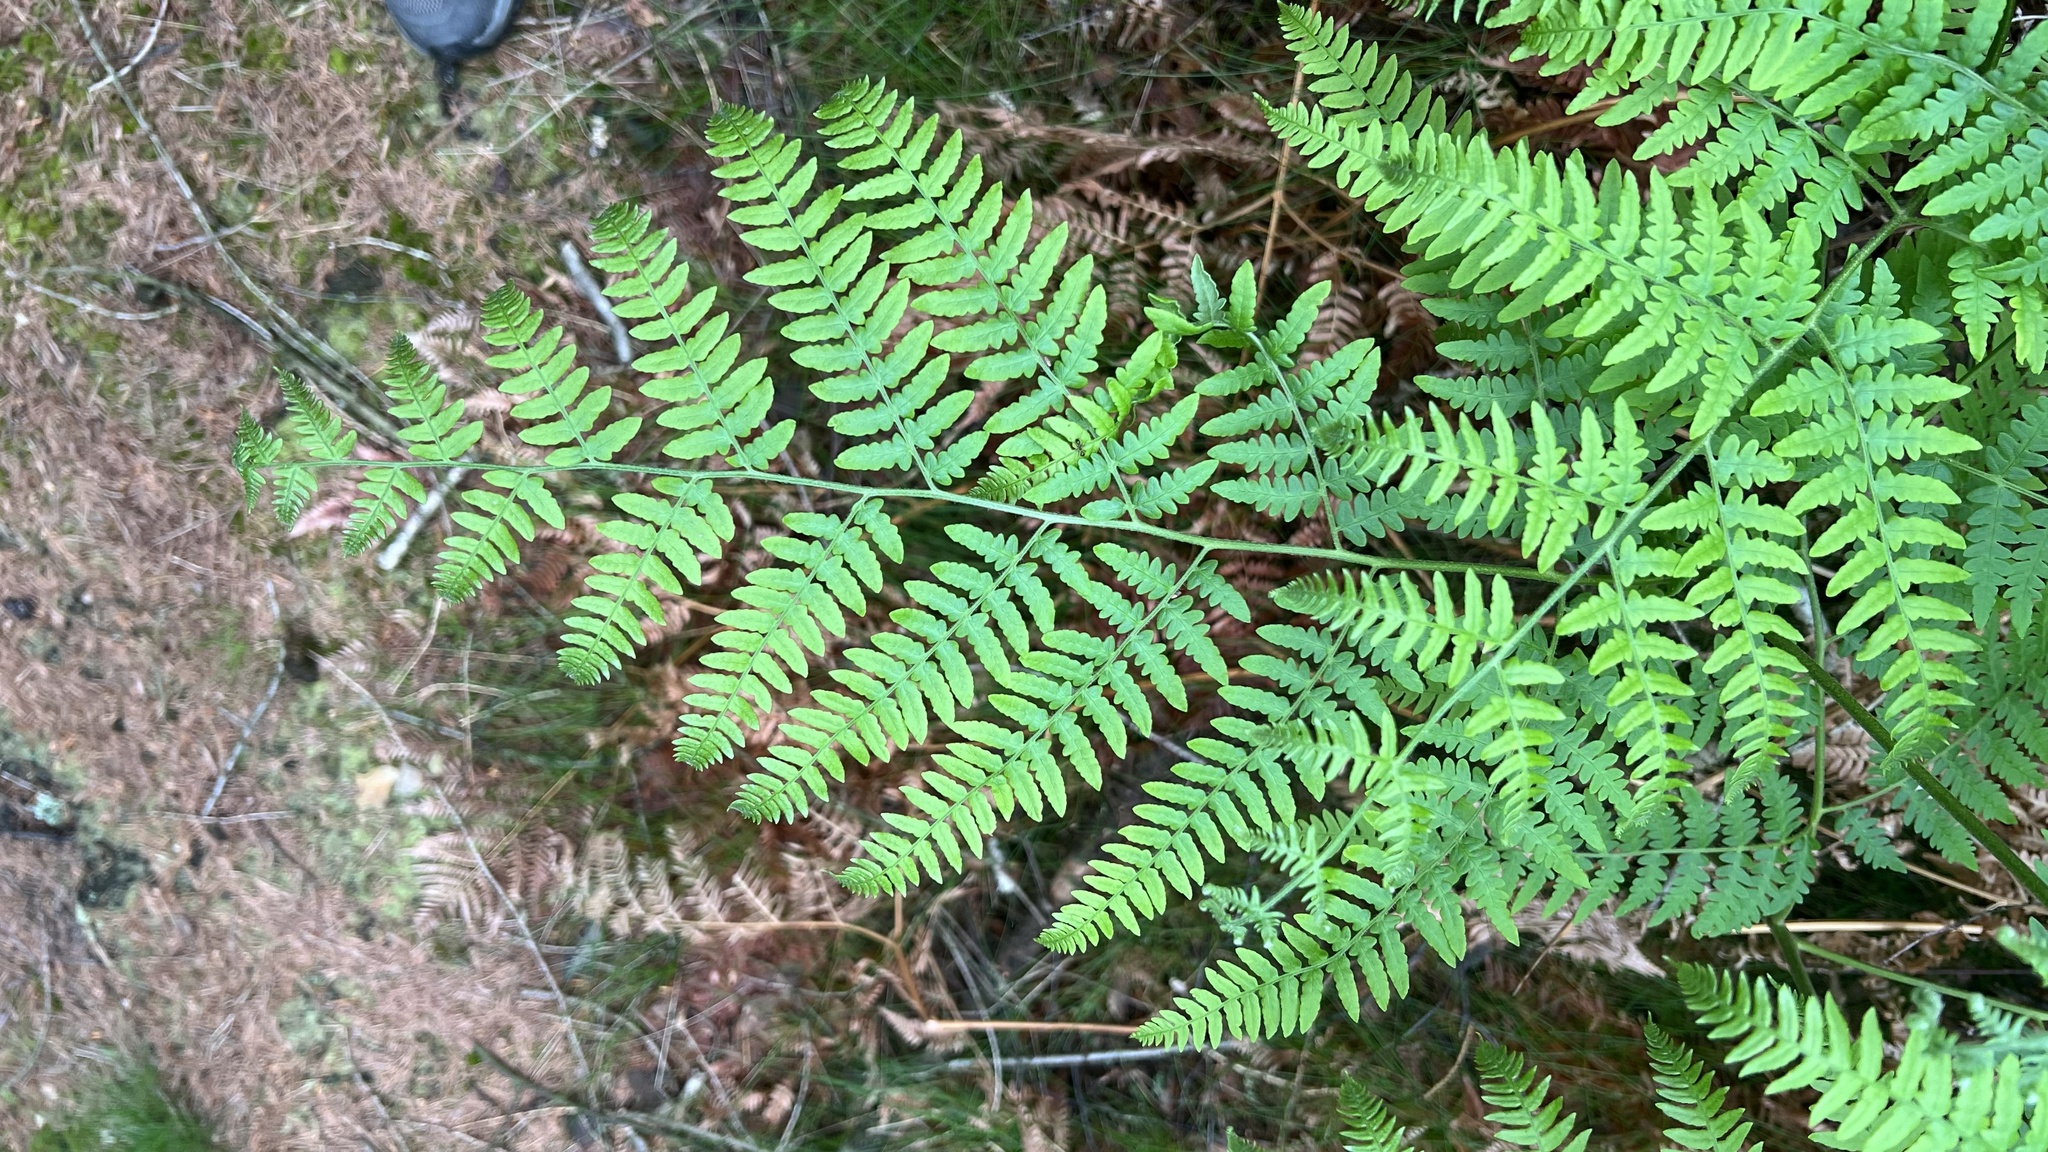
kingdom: Plantae
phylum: Tracheophyta
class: Polypodiopsida
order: Polypodiales
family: Dennstaedtiaceae
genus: Pteridium
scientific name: Pteridium aquilinum
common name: Bracken
